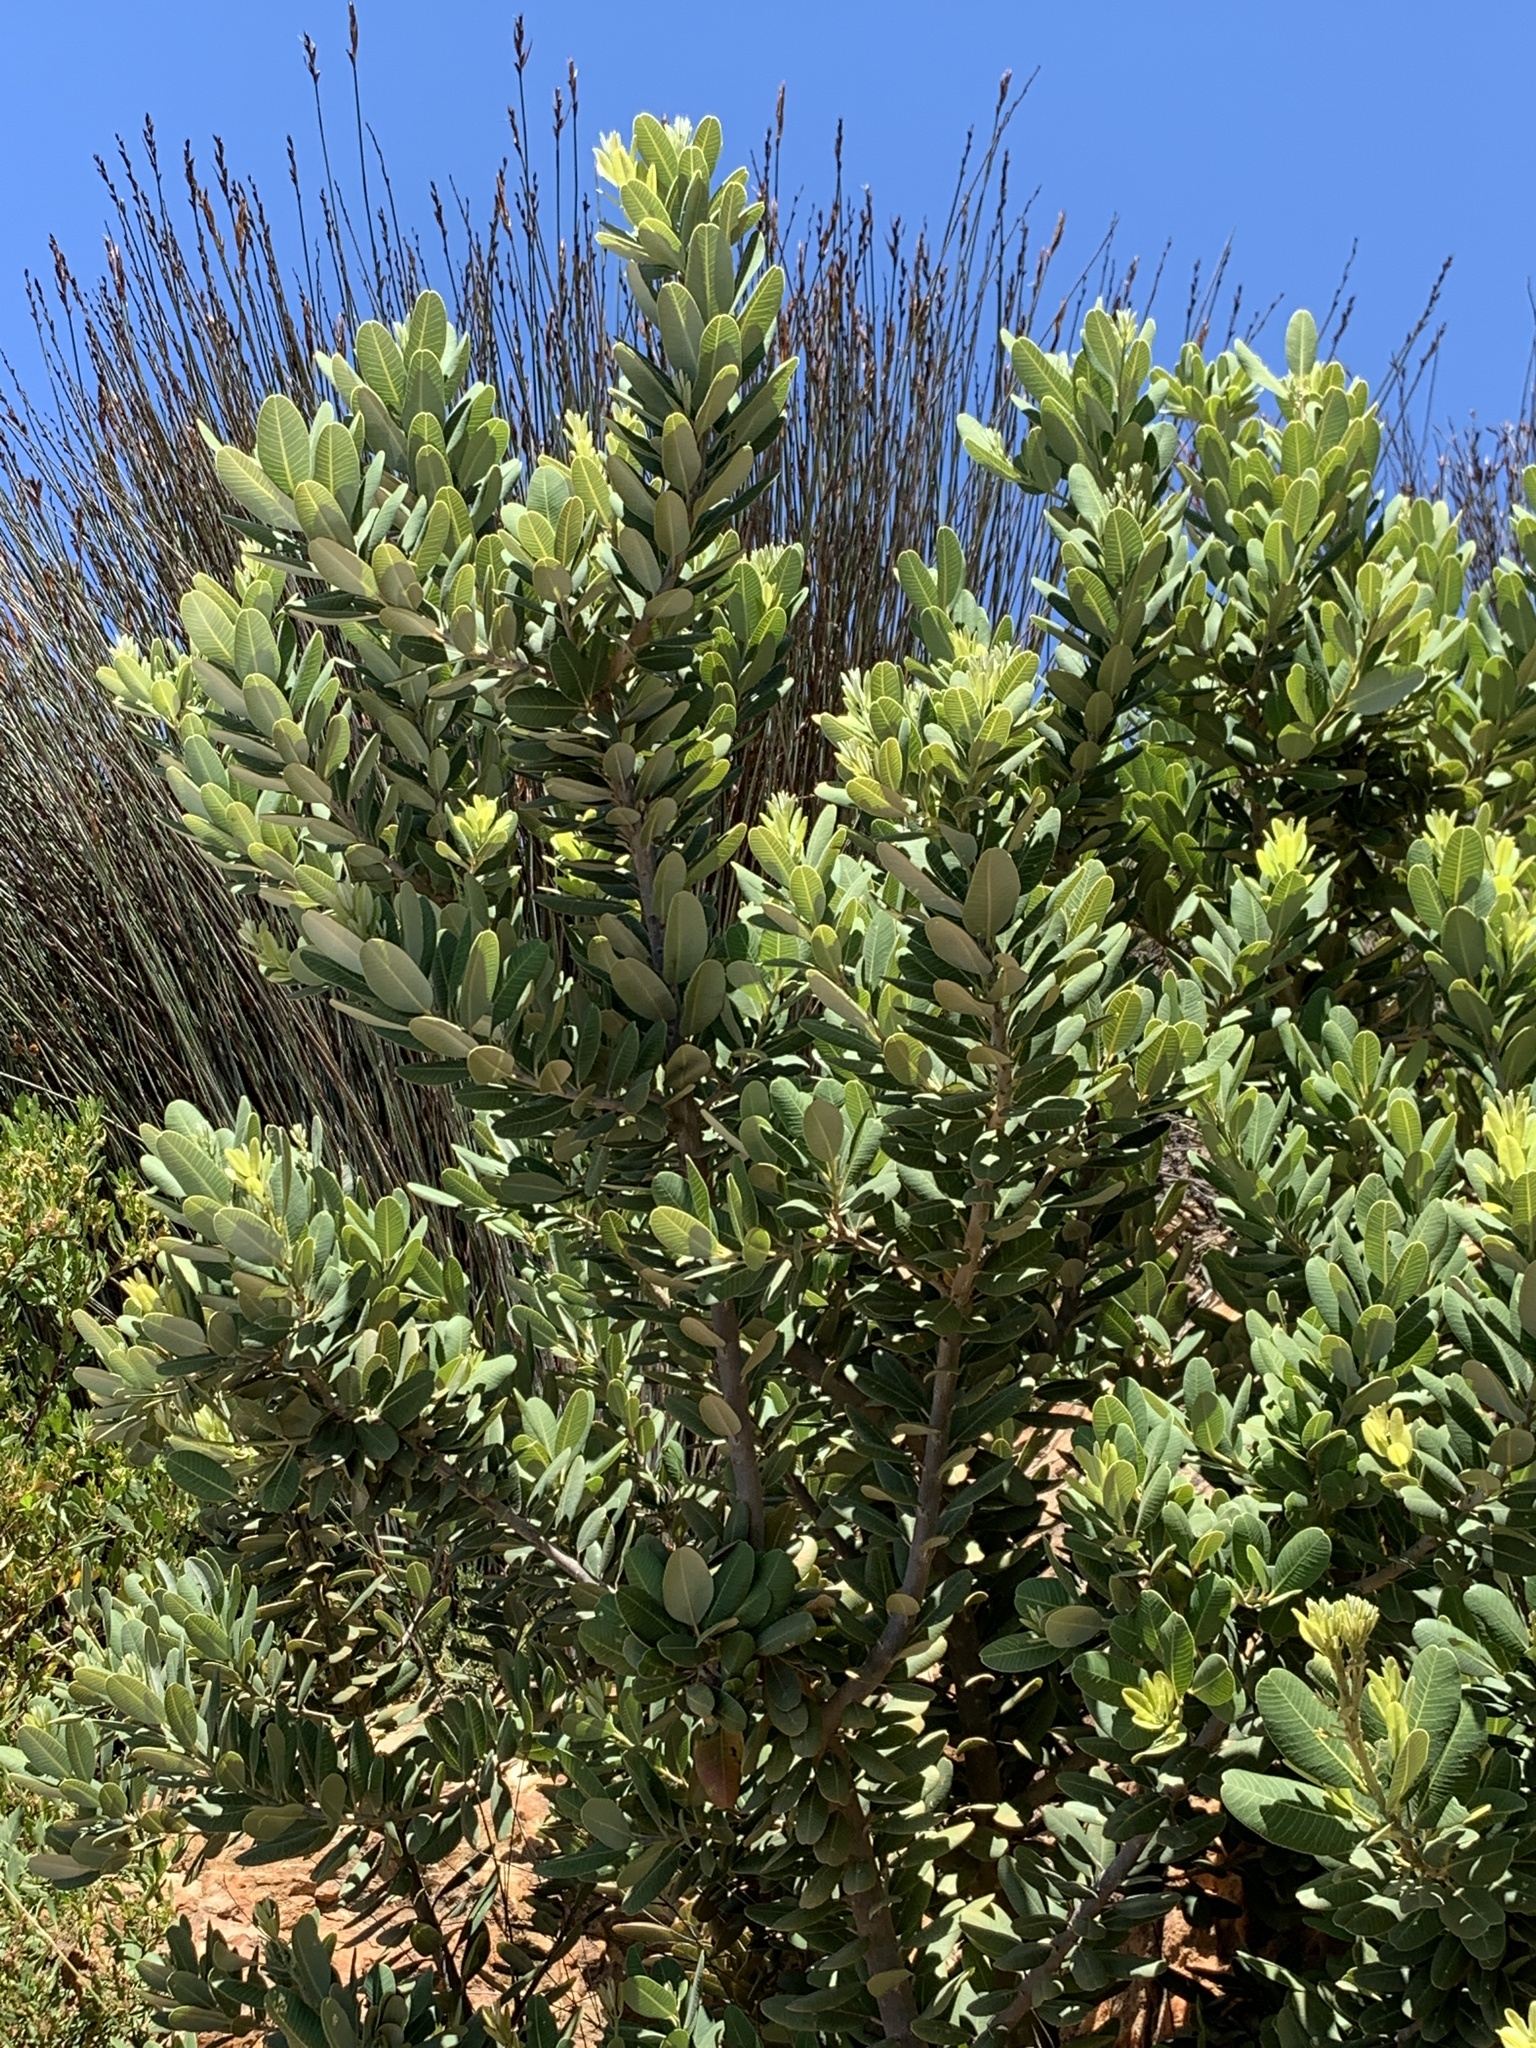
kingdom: Plantae
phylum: Tracheophyta
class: Magnoliopsida
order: Sapindales
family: Anacardiaceae
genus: Heeria
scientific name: Heeria argentea
